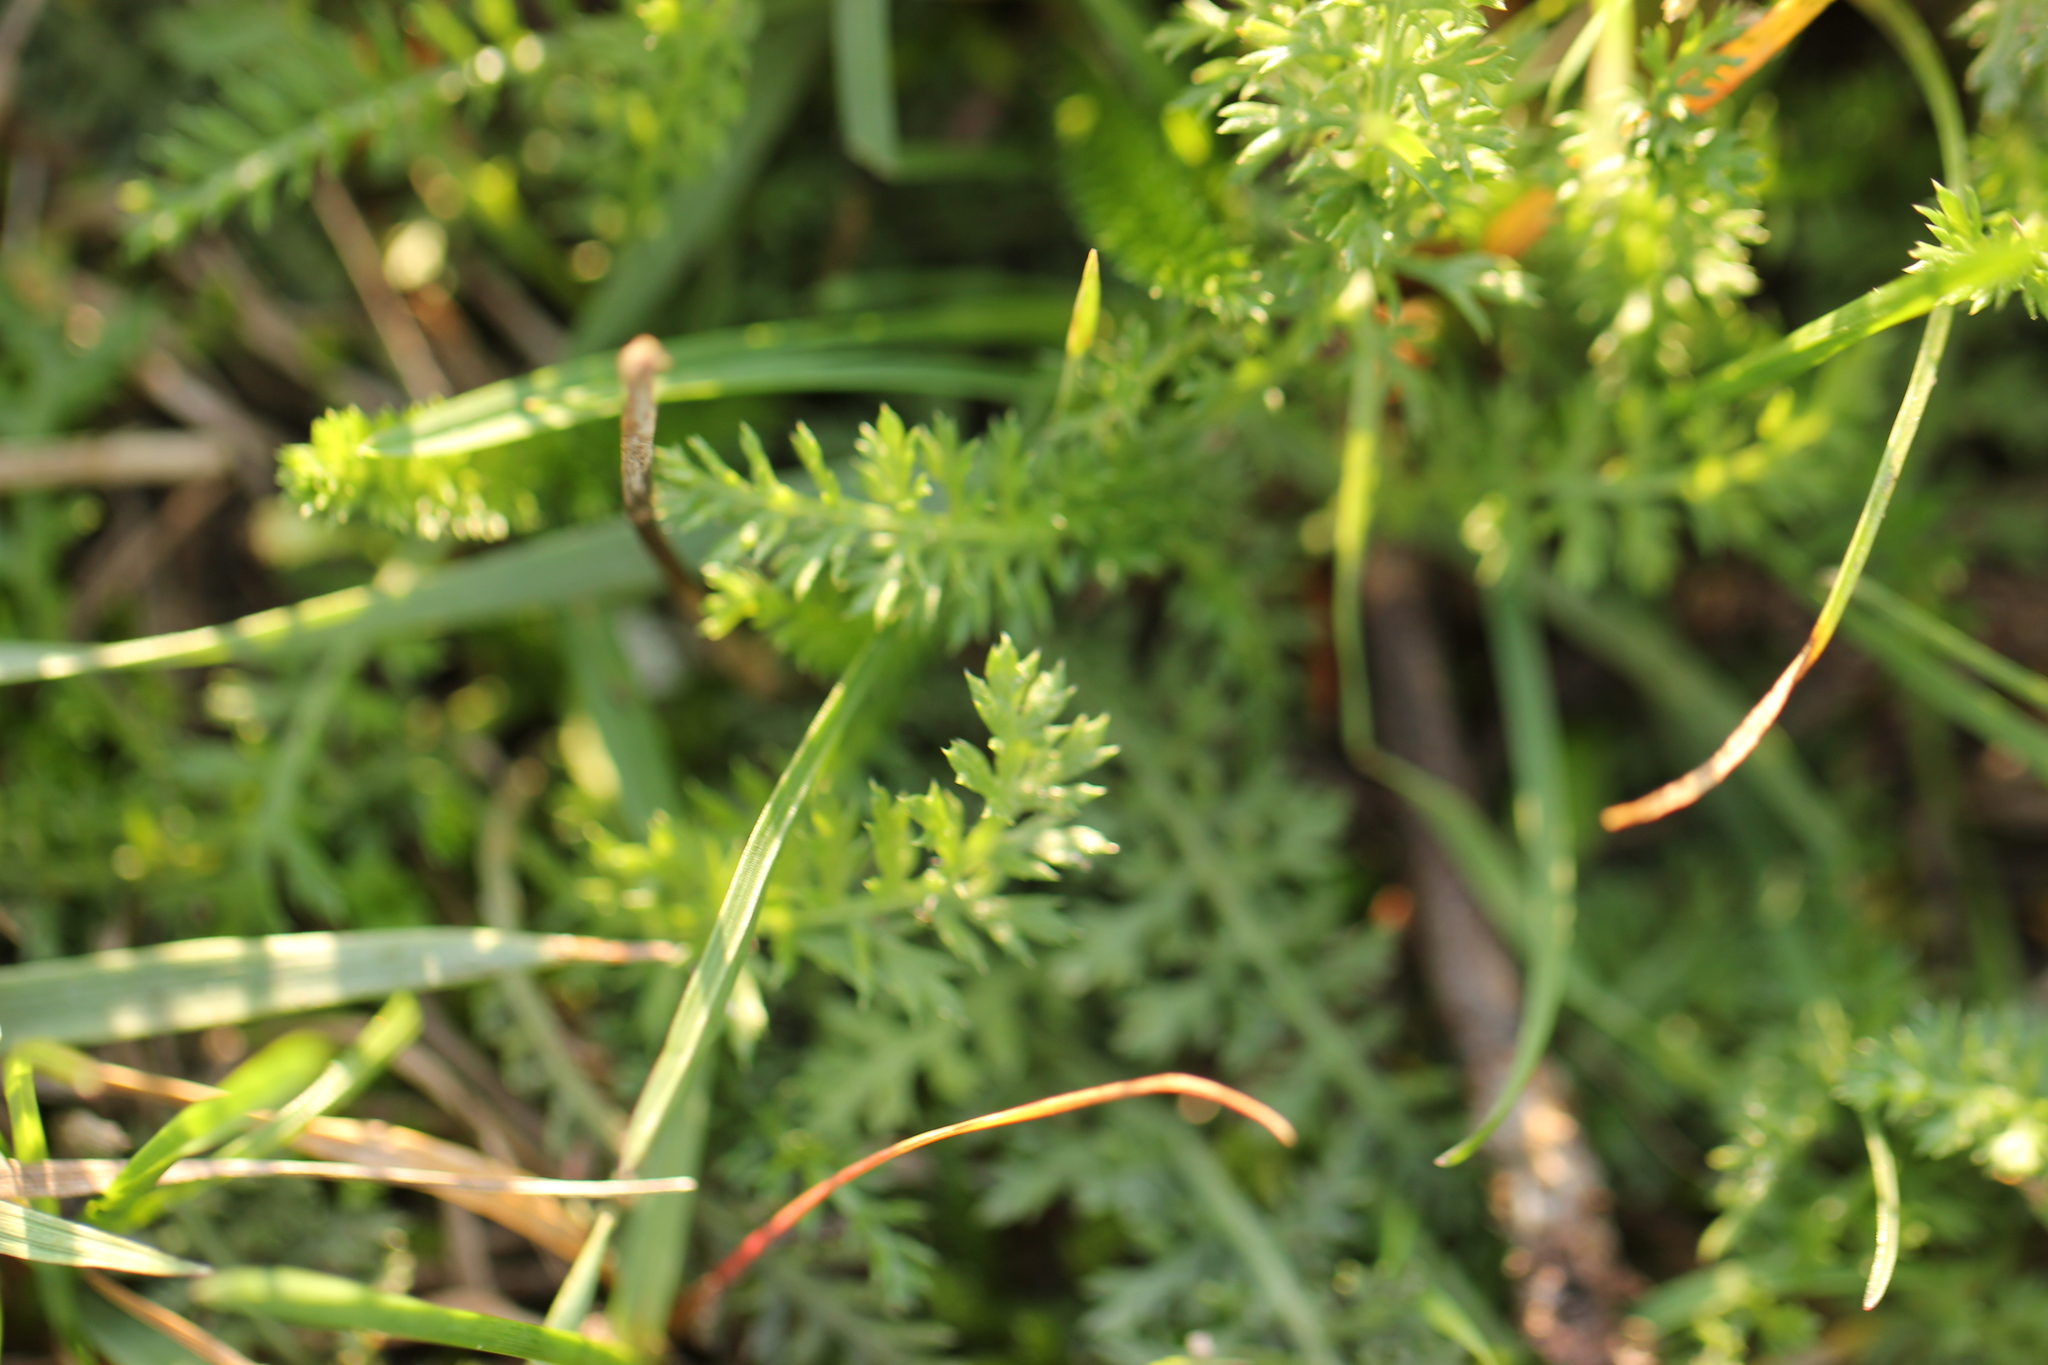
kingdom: Plantae
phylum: Tracheophyta
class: Magnoliopsida
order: Asterales
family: Asteraceae
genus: Achillea
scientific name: Achillea millefolium
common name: Yarrow
